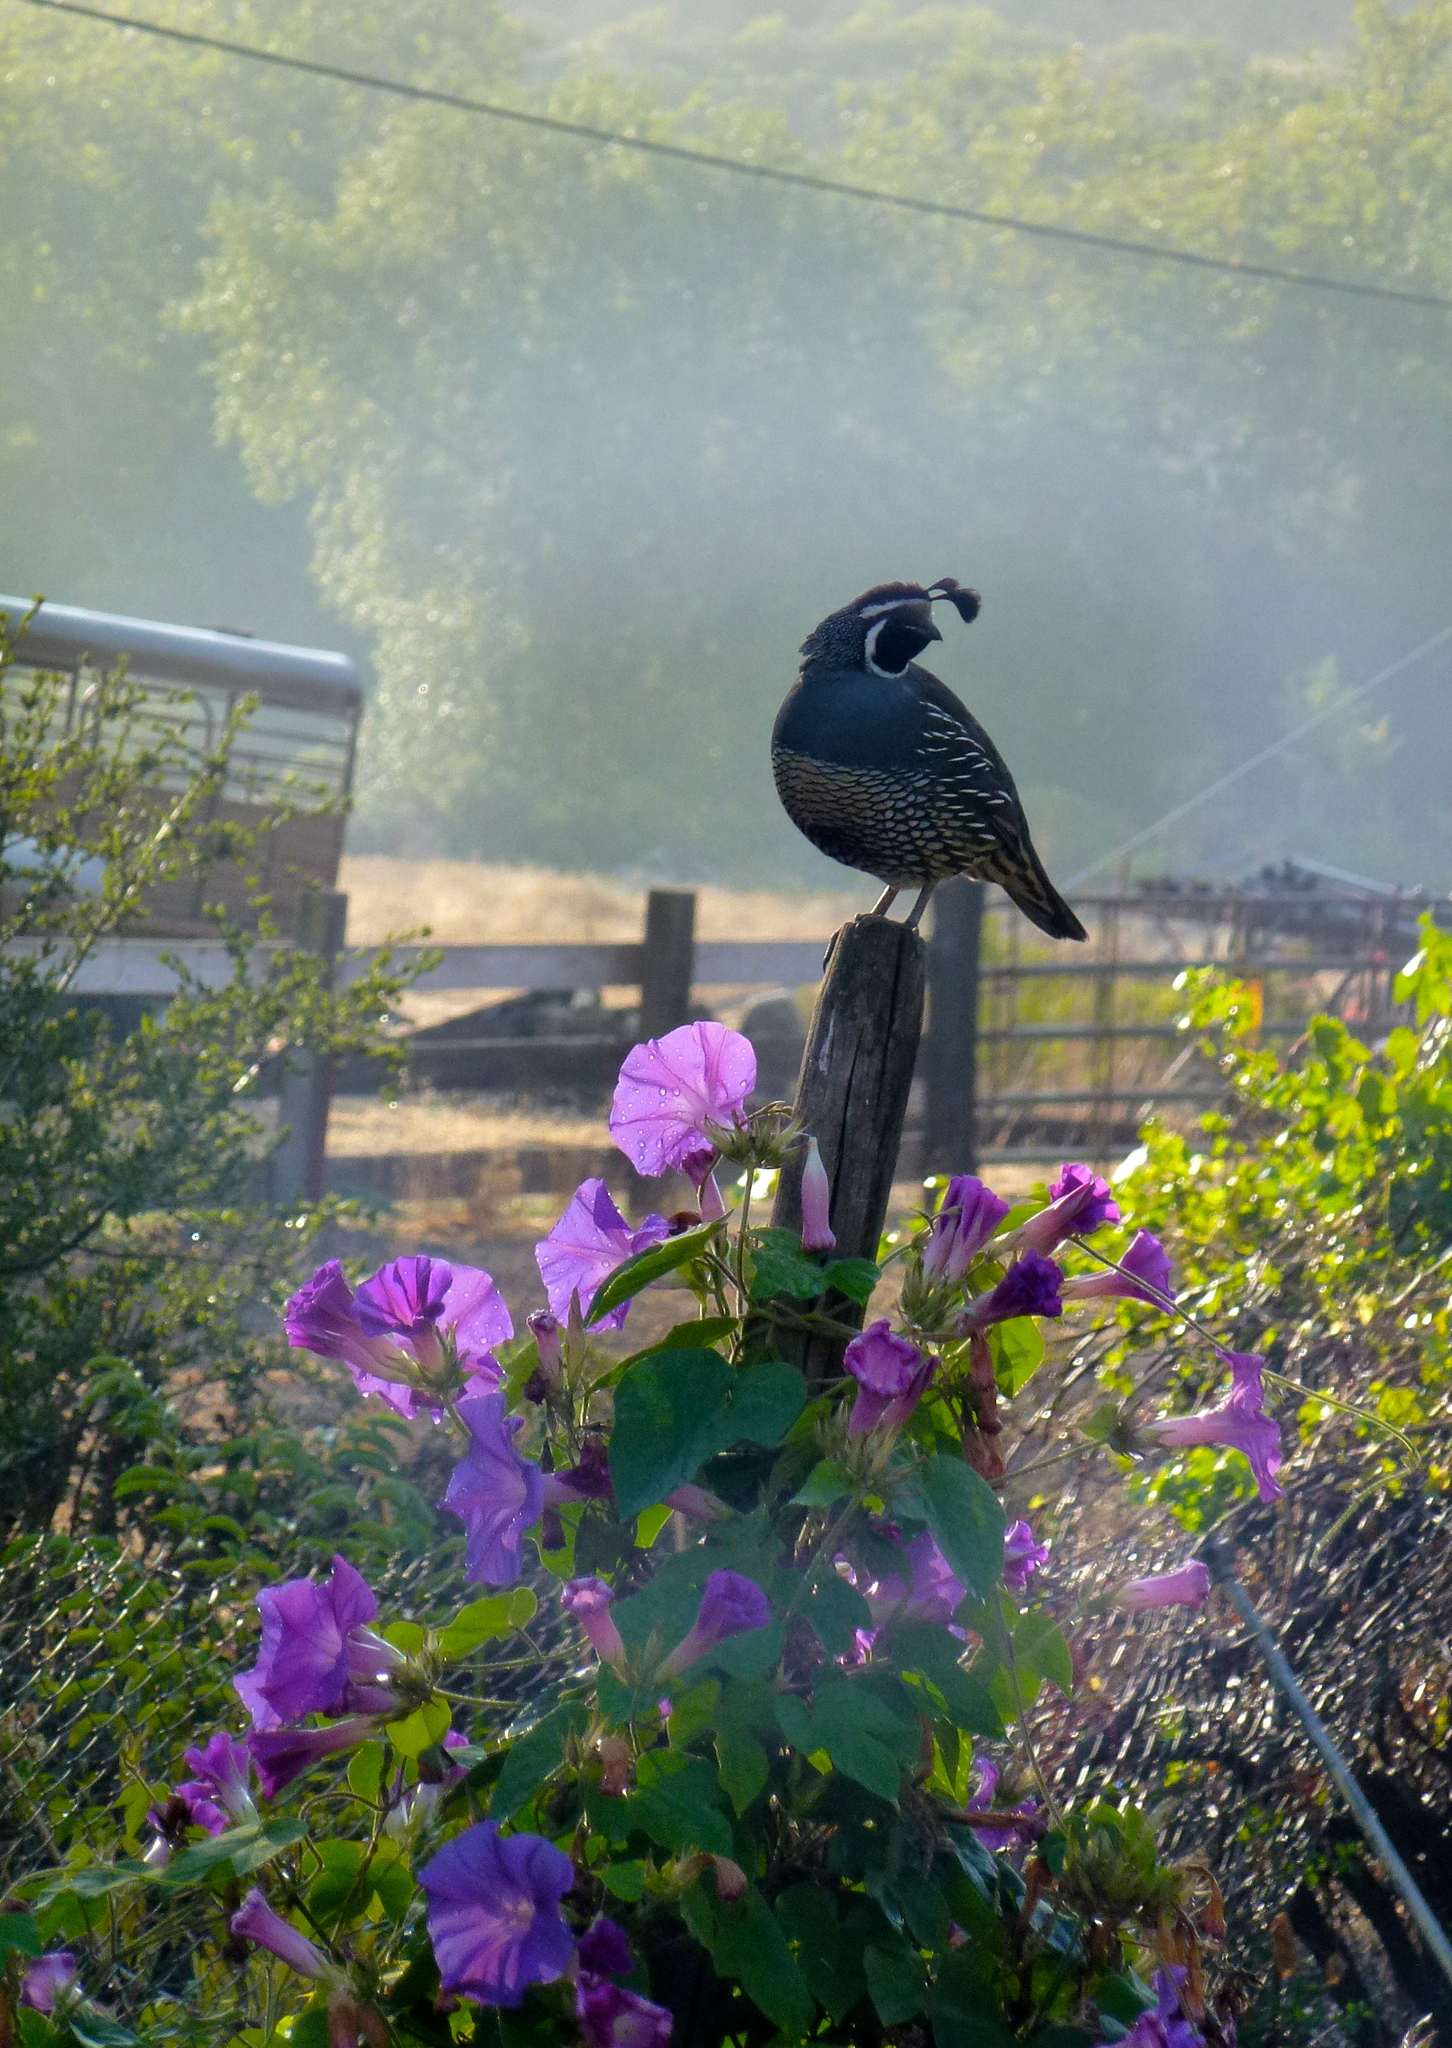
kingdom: Animalia
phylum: Chordata
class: Aves
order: Galliformes
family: Odontophoridae
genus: Callipepla
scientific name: Callipepla californica
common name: California quail
